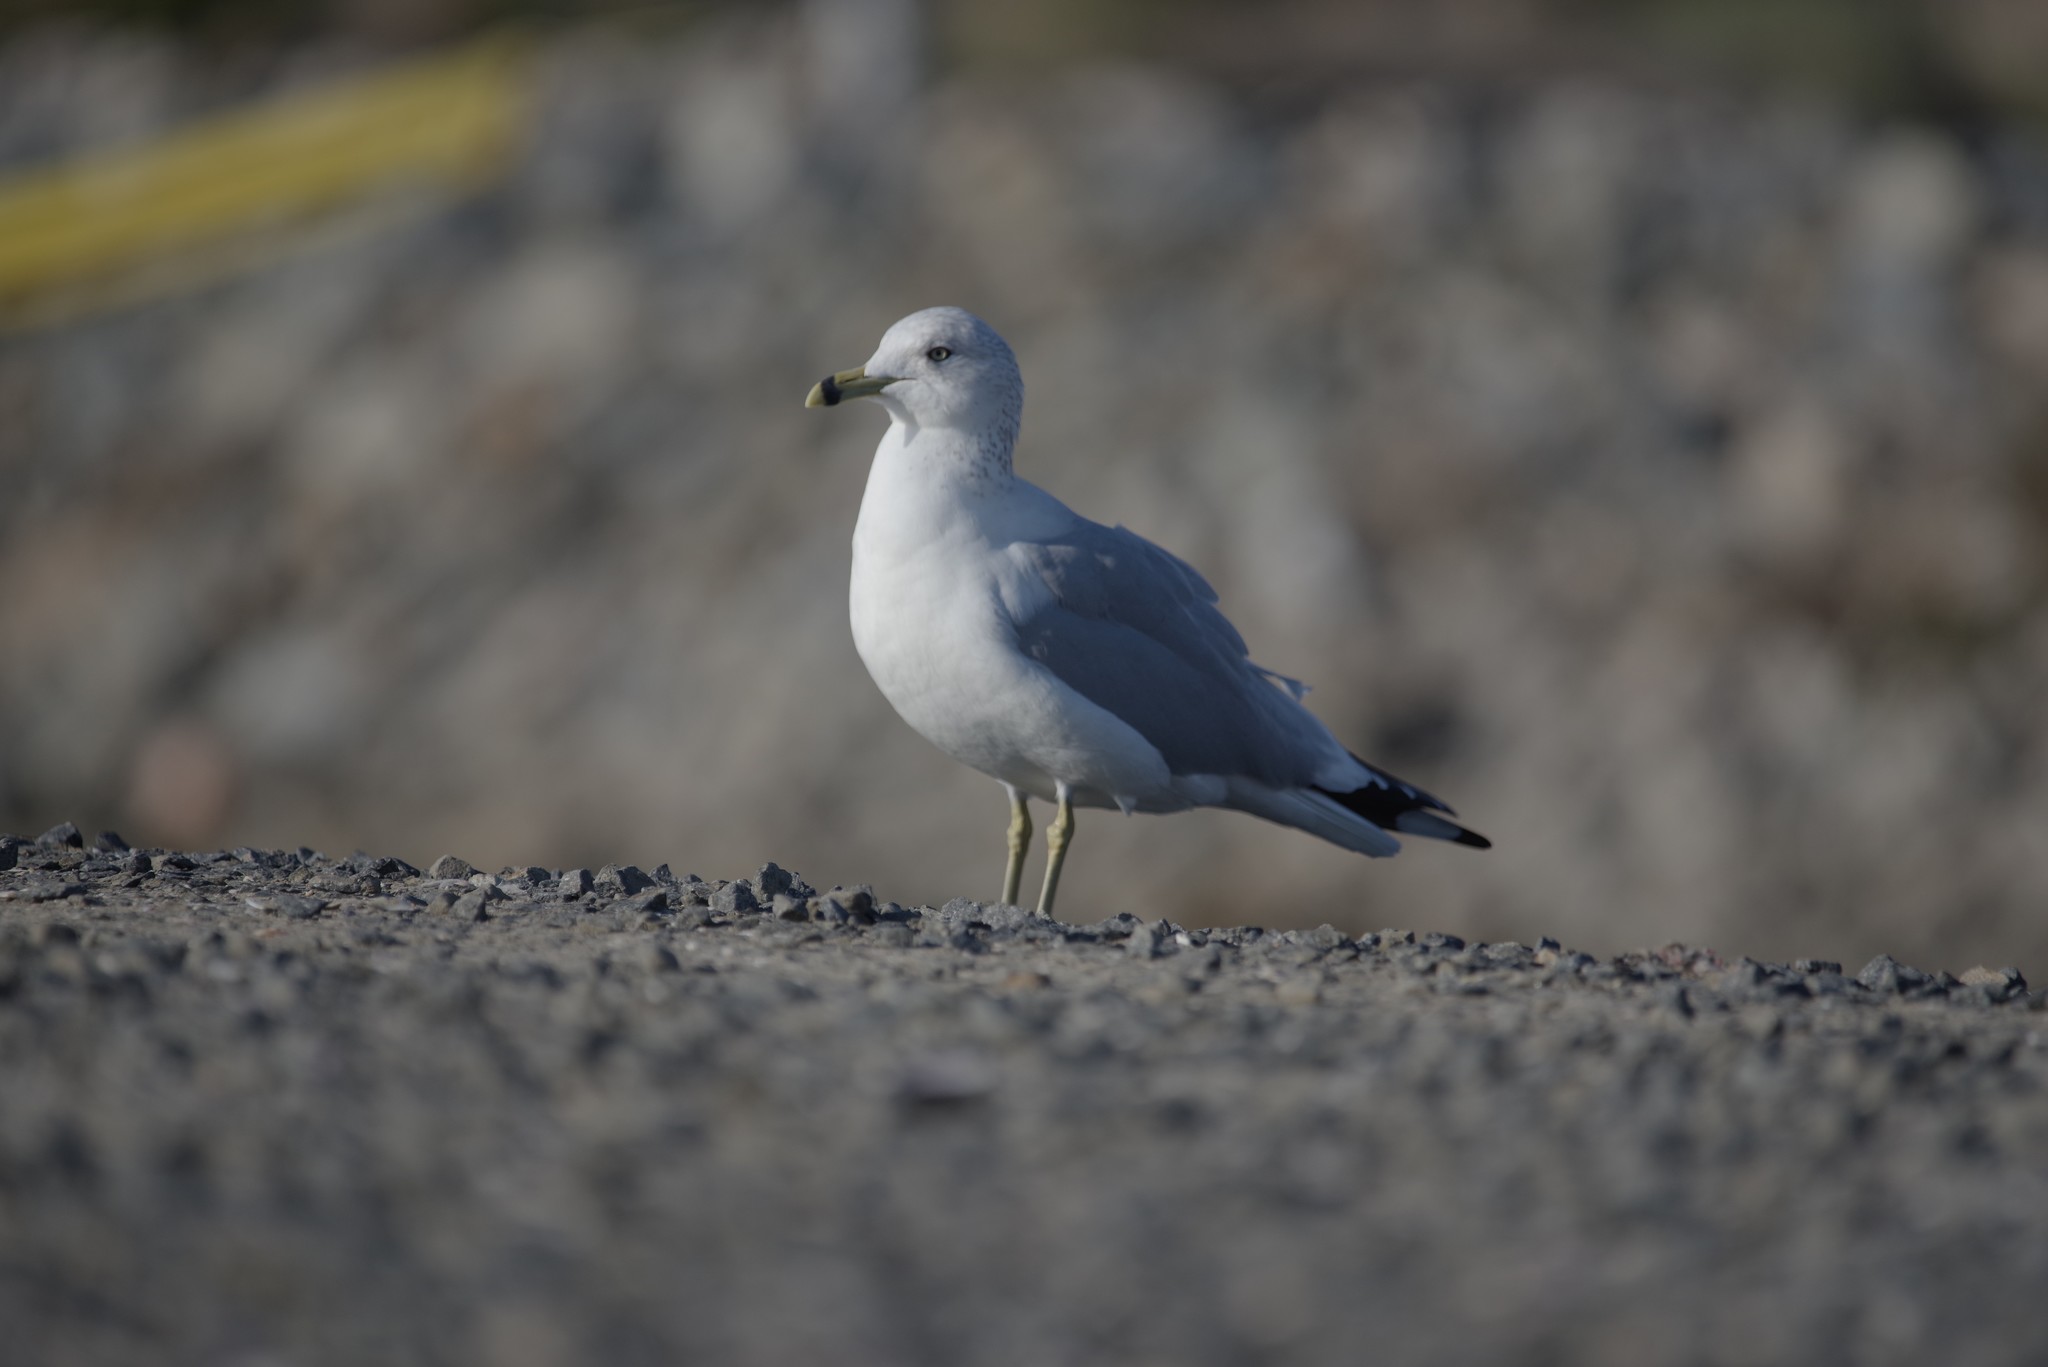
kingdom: Animalia
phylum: Chordata
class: Aves
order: Charadriiformes
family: Laridae
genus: Larus
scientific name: Larus delawarensis
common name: Ring-billed gull
